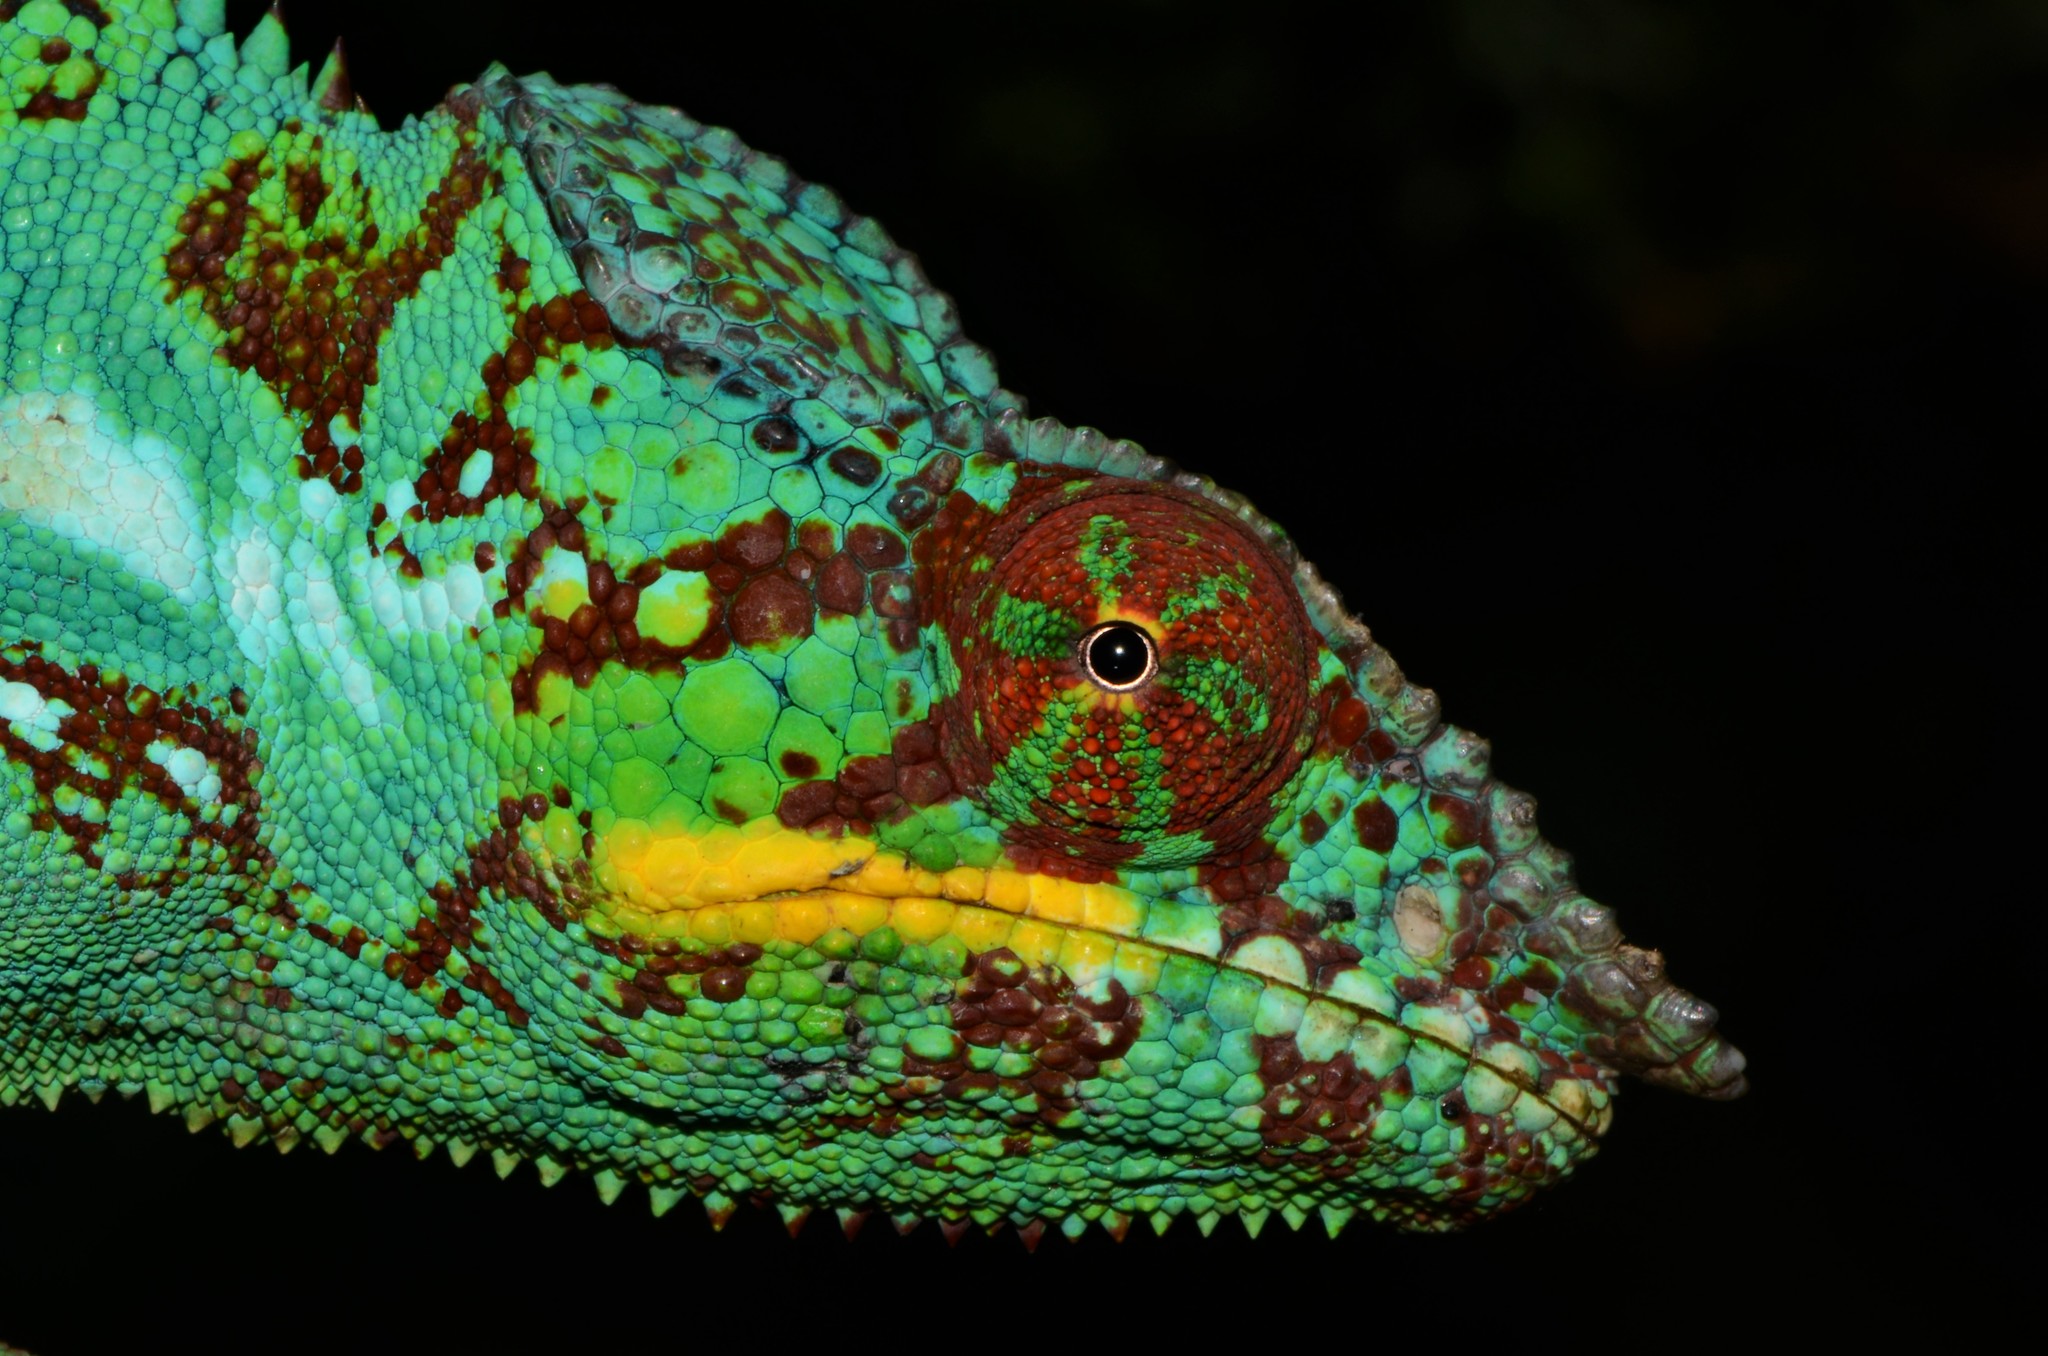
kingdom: Animalia
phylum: Chordata
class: Squamata
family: Chamaeleonidae
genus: Furcifer
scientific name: Furcifer pardalis
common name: Panther chameleon
